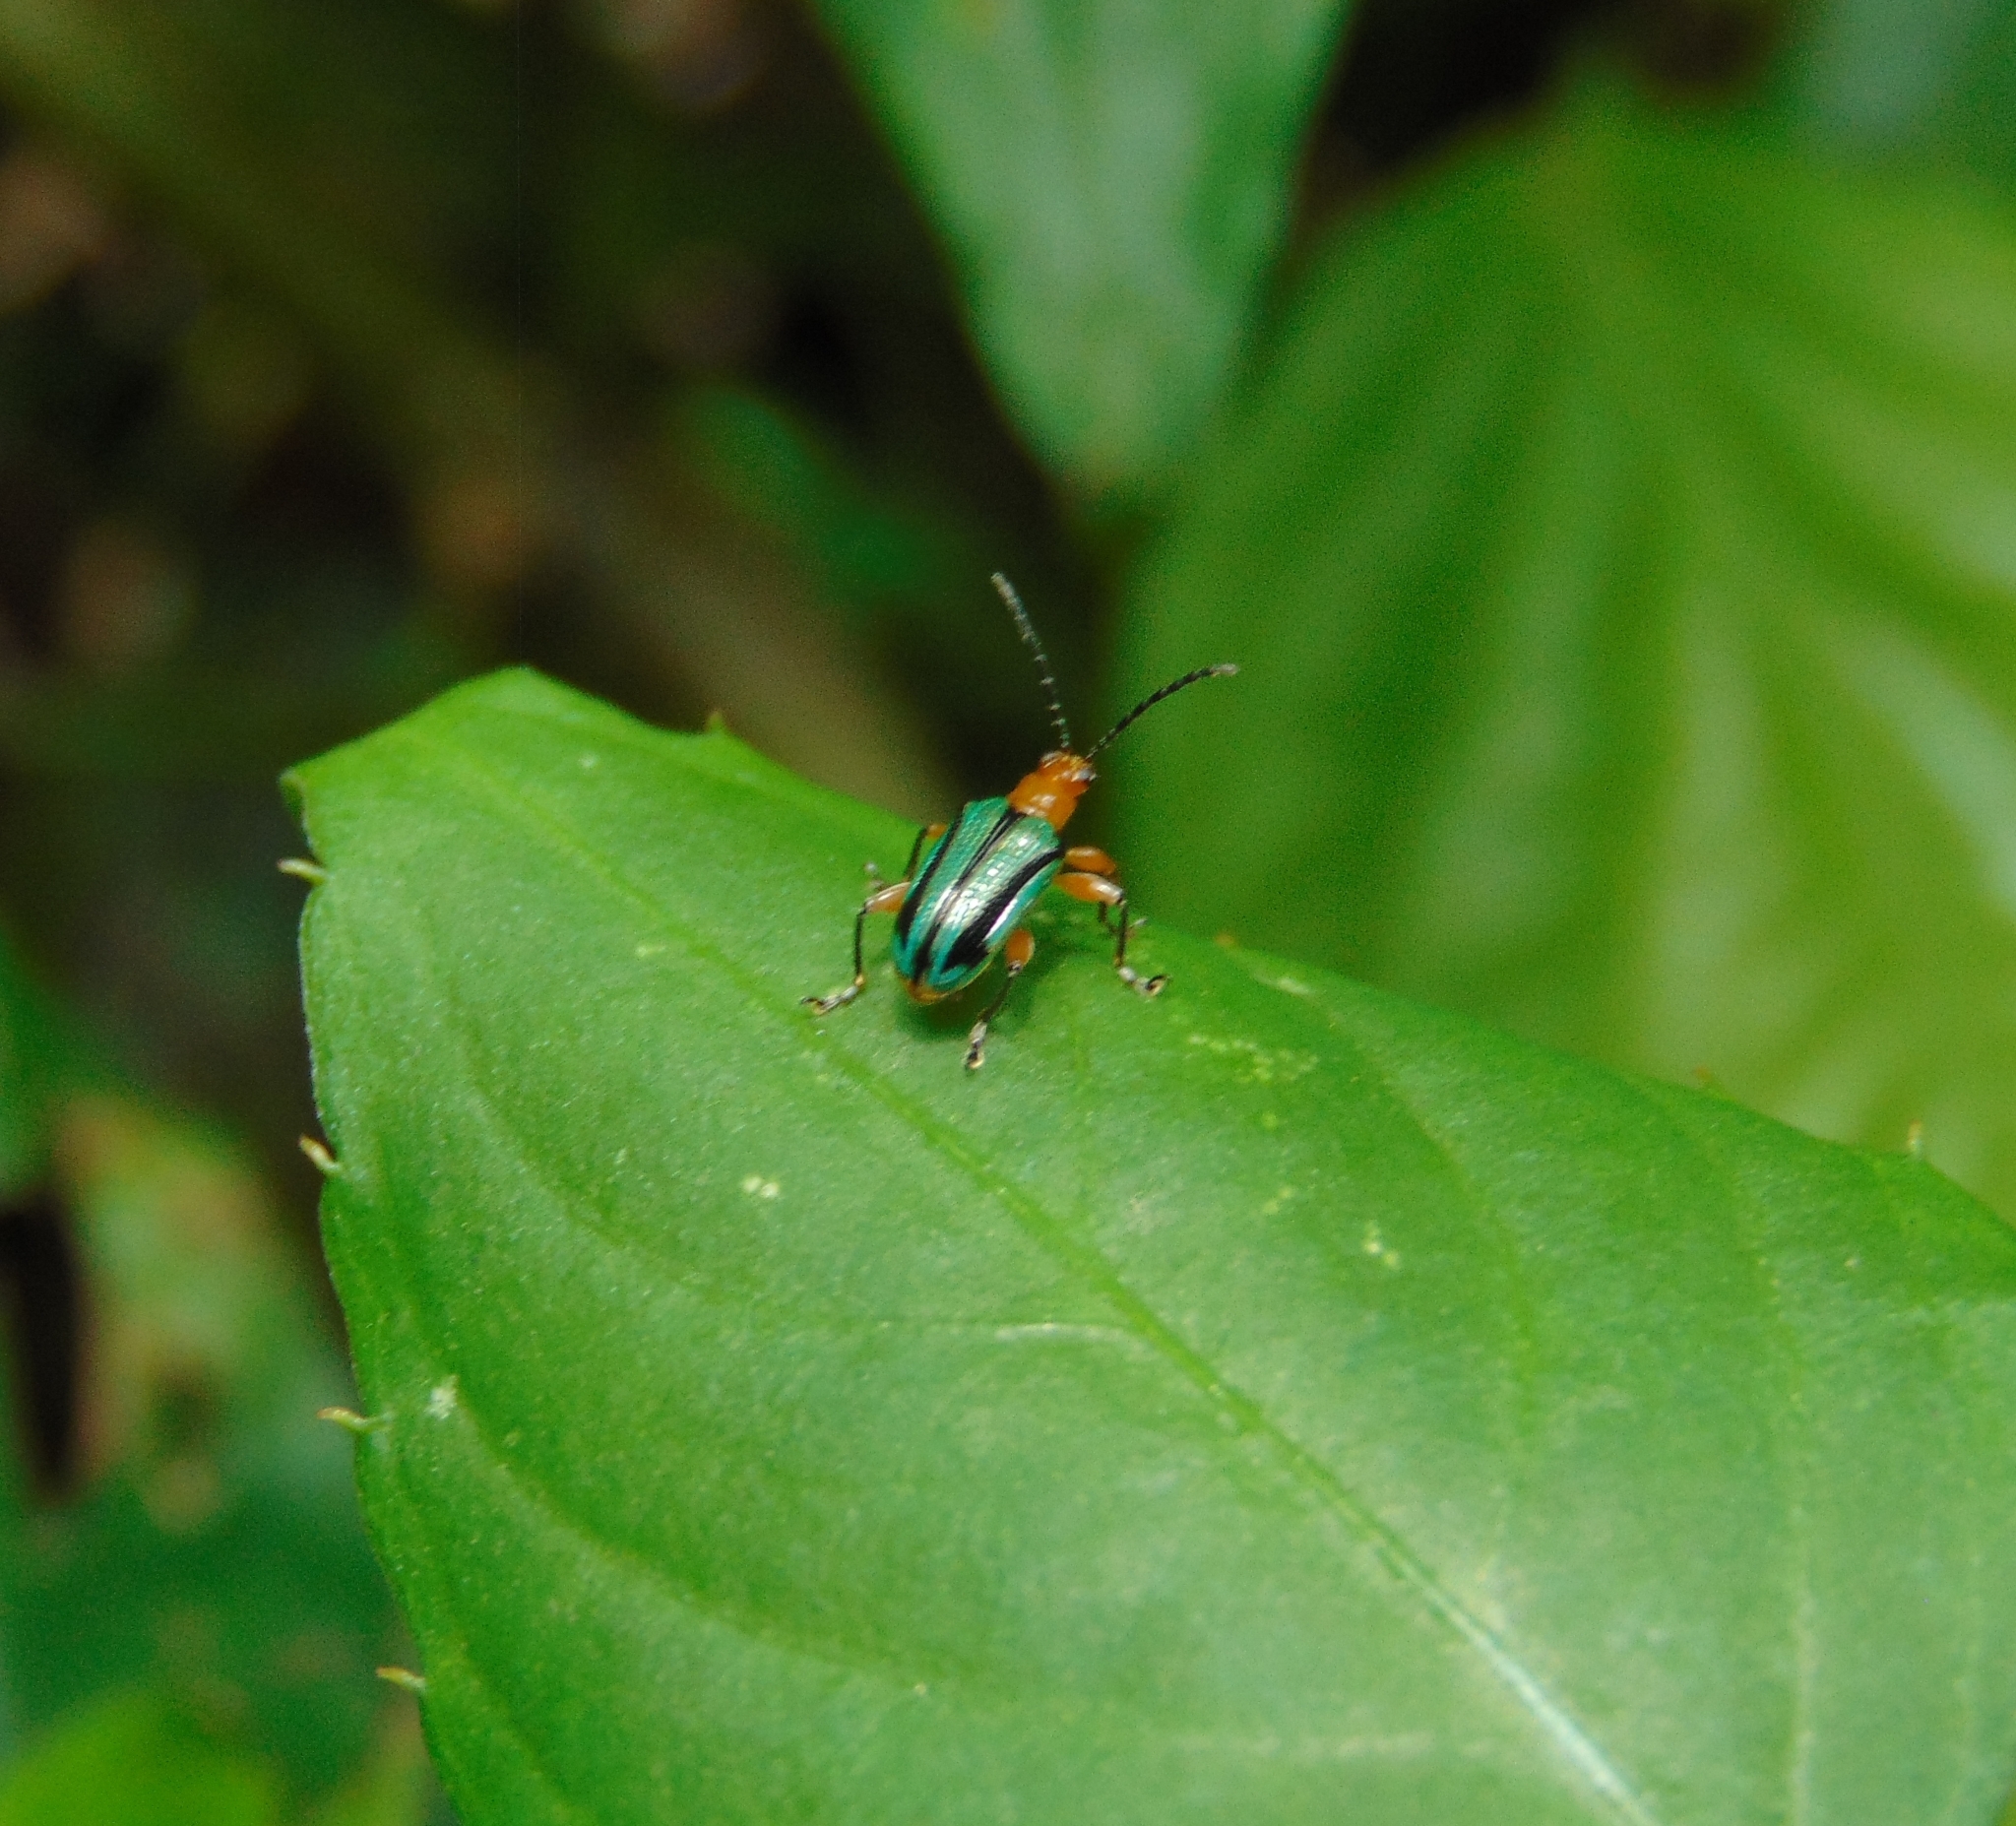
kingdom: Animalia
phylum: Arthropoda
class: Insecta
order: Coleoptera
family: Chrysomelidae
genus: Neolema
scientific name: Neolema
